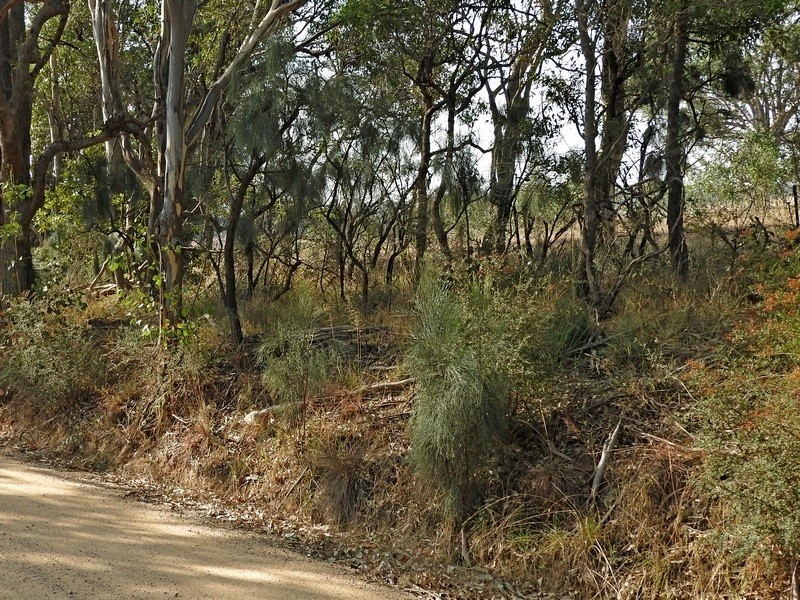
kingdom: Plantae
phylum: Tracheophyta
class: Magnoliopsida
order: Fabales
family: Fabaceae
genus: Jacksonia
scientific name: Jacksonia scoparia
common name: Dogwood
